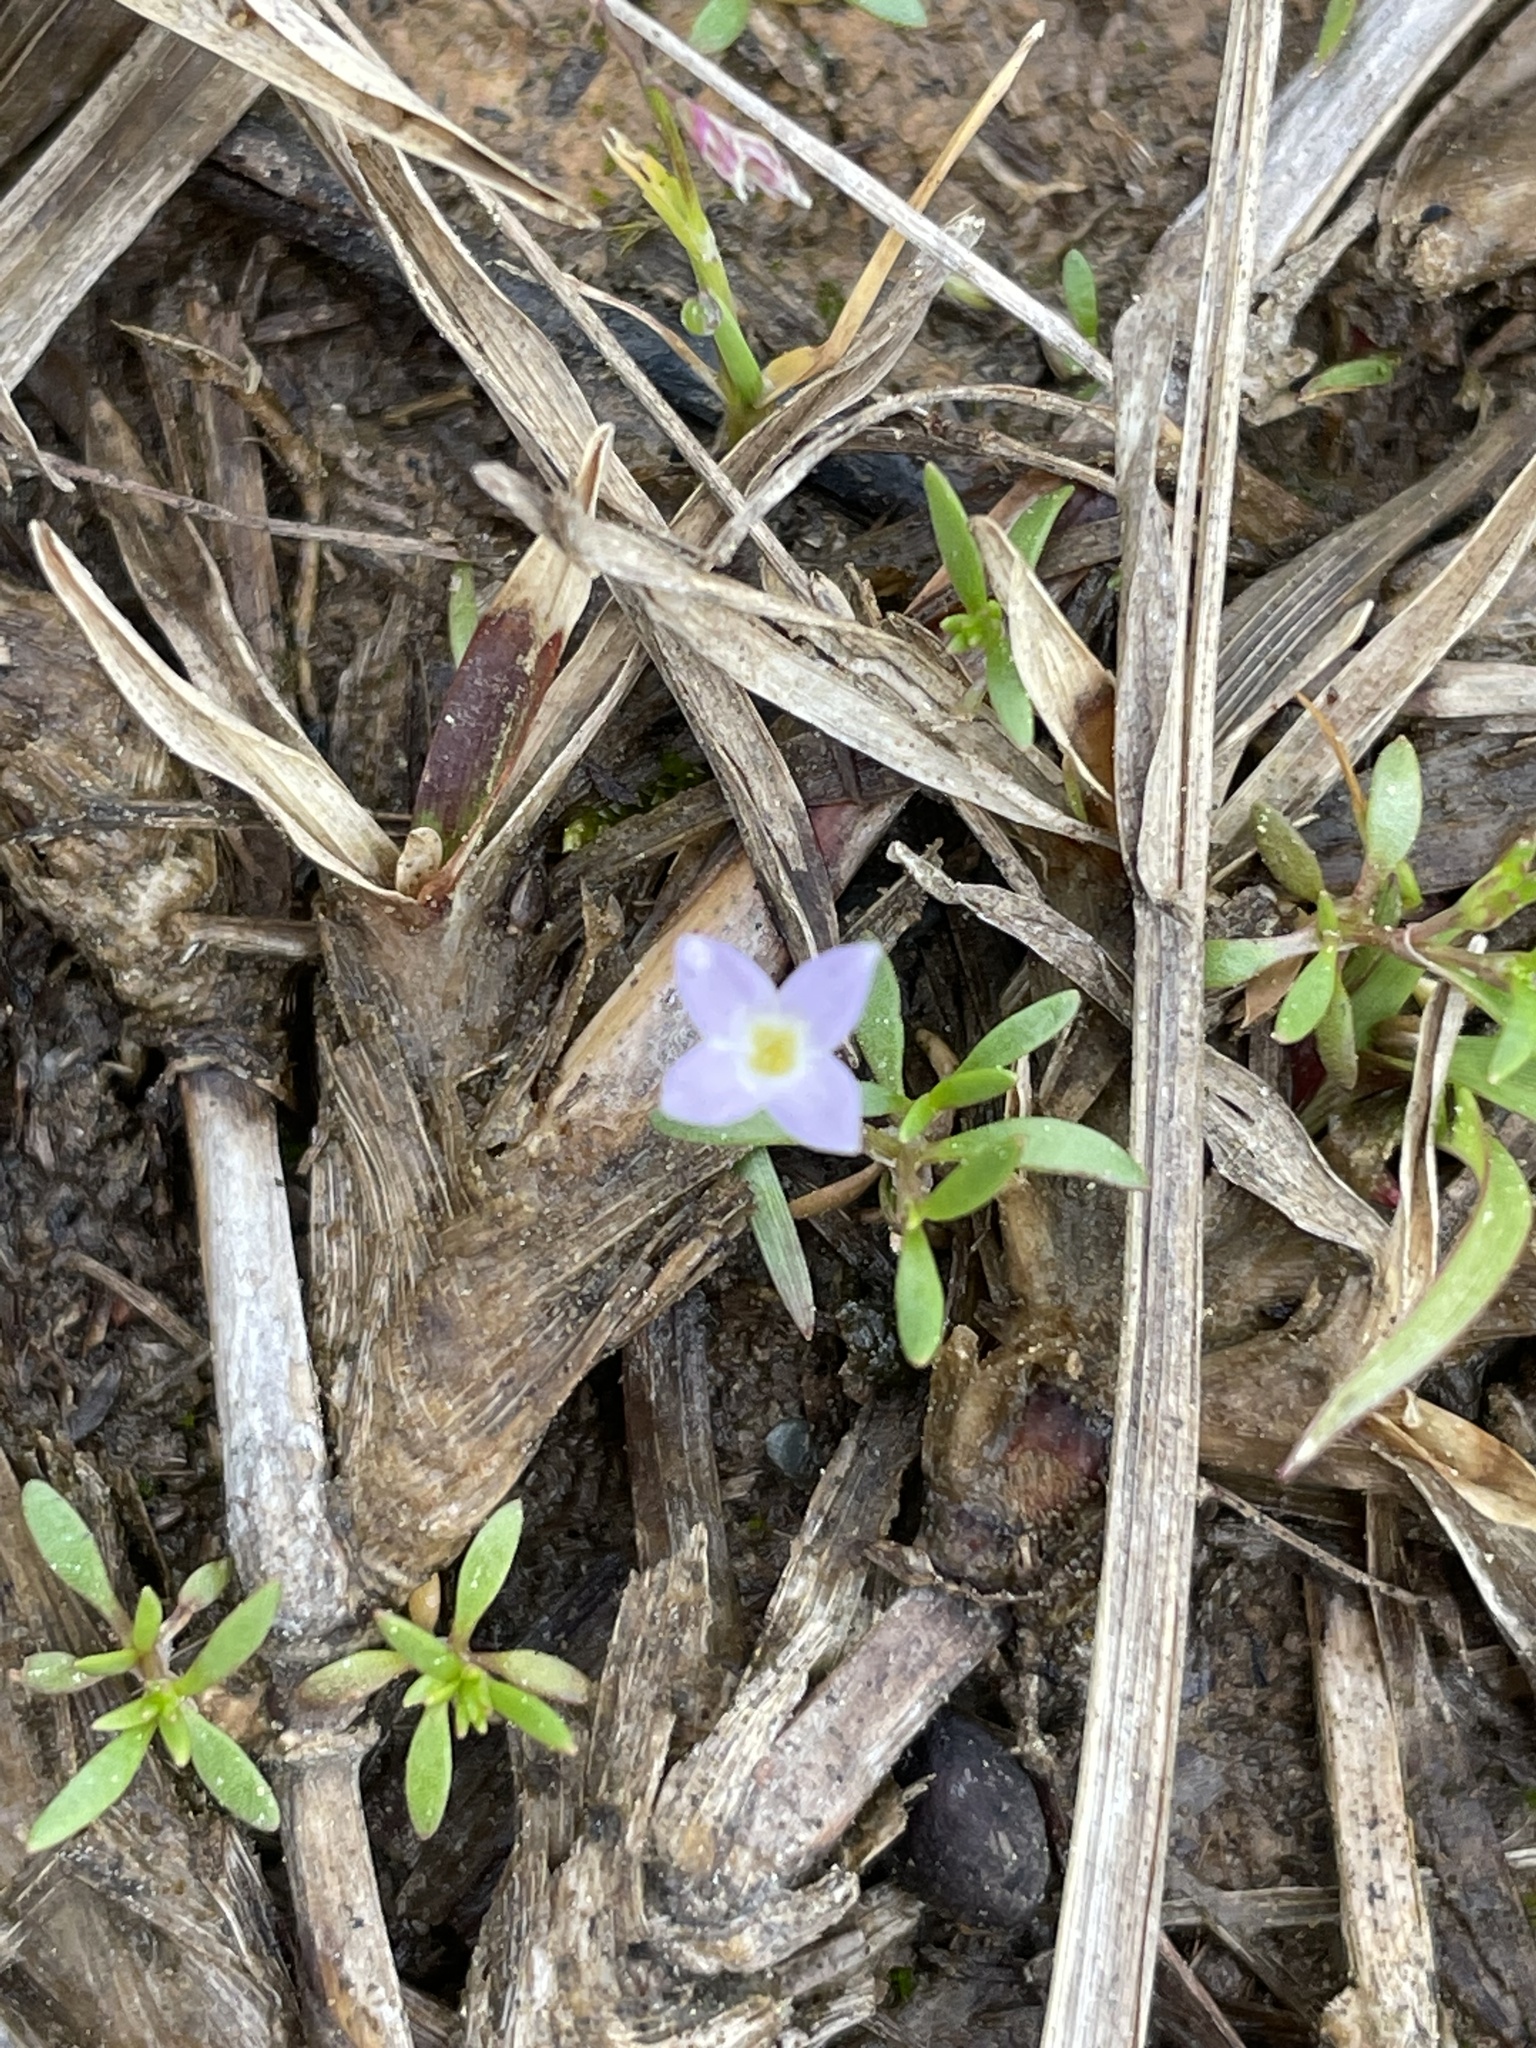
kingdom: Plantae
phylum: Tracheophyta
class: Magnoliopsida
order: Gentianales
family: Rubiaceae
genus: Houstonia
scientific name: Houstonia rosea
